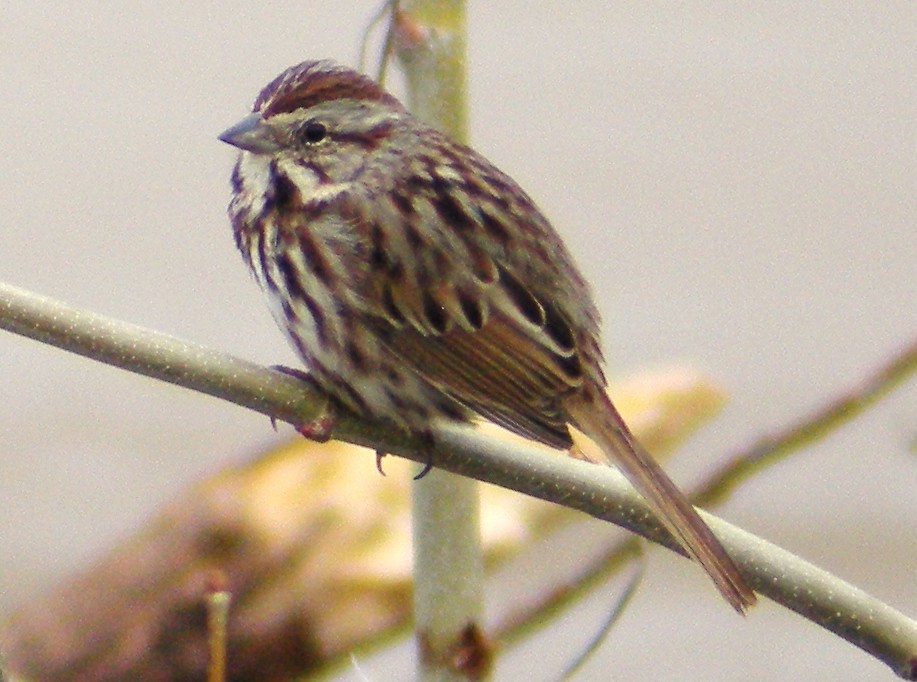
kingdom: Animalia
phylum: Chordata
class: Aves
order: Passeriformes
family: Passerellidae
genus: Melospiza
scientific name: Melospiza melodia
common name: Song sparrow
